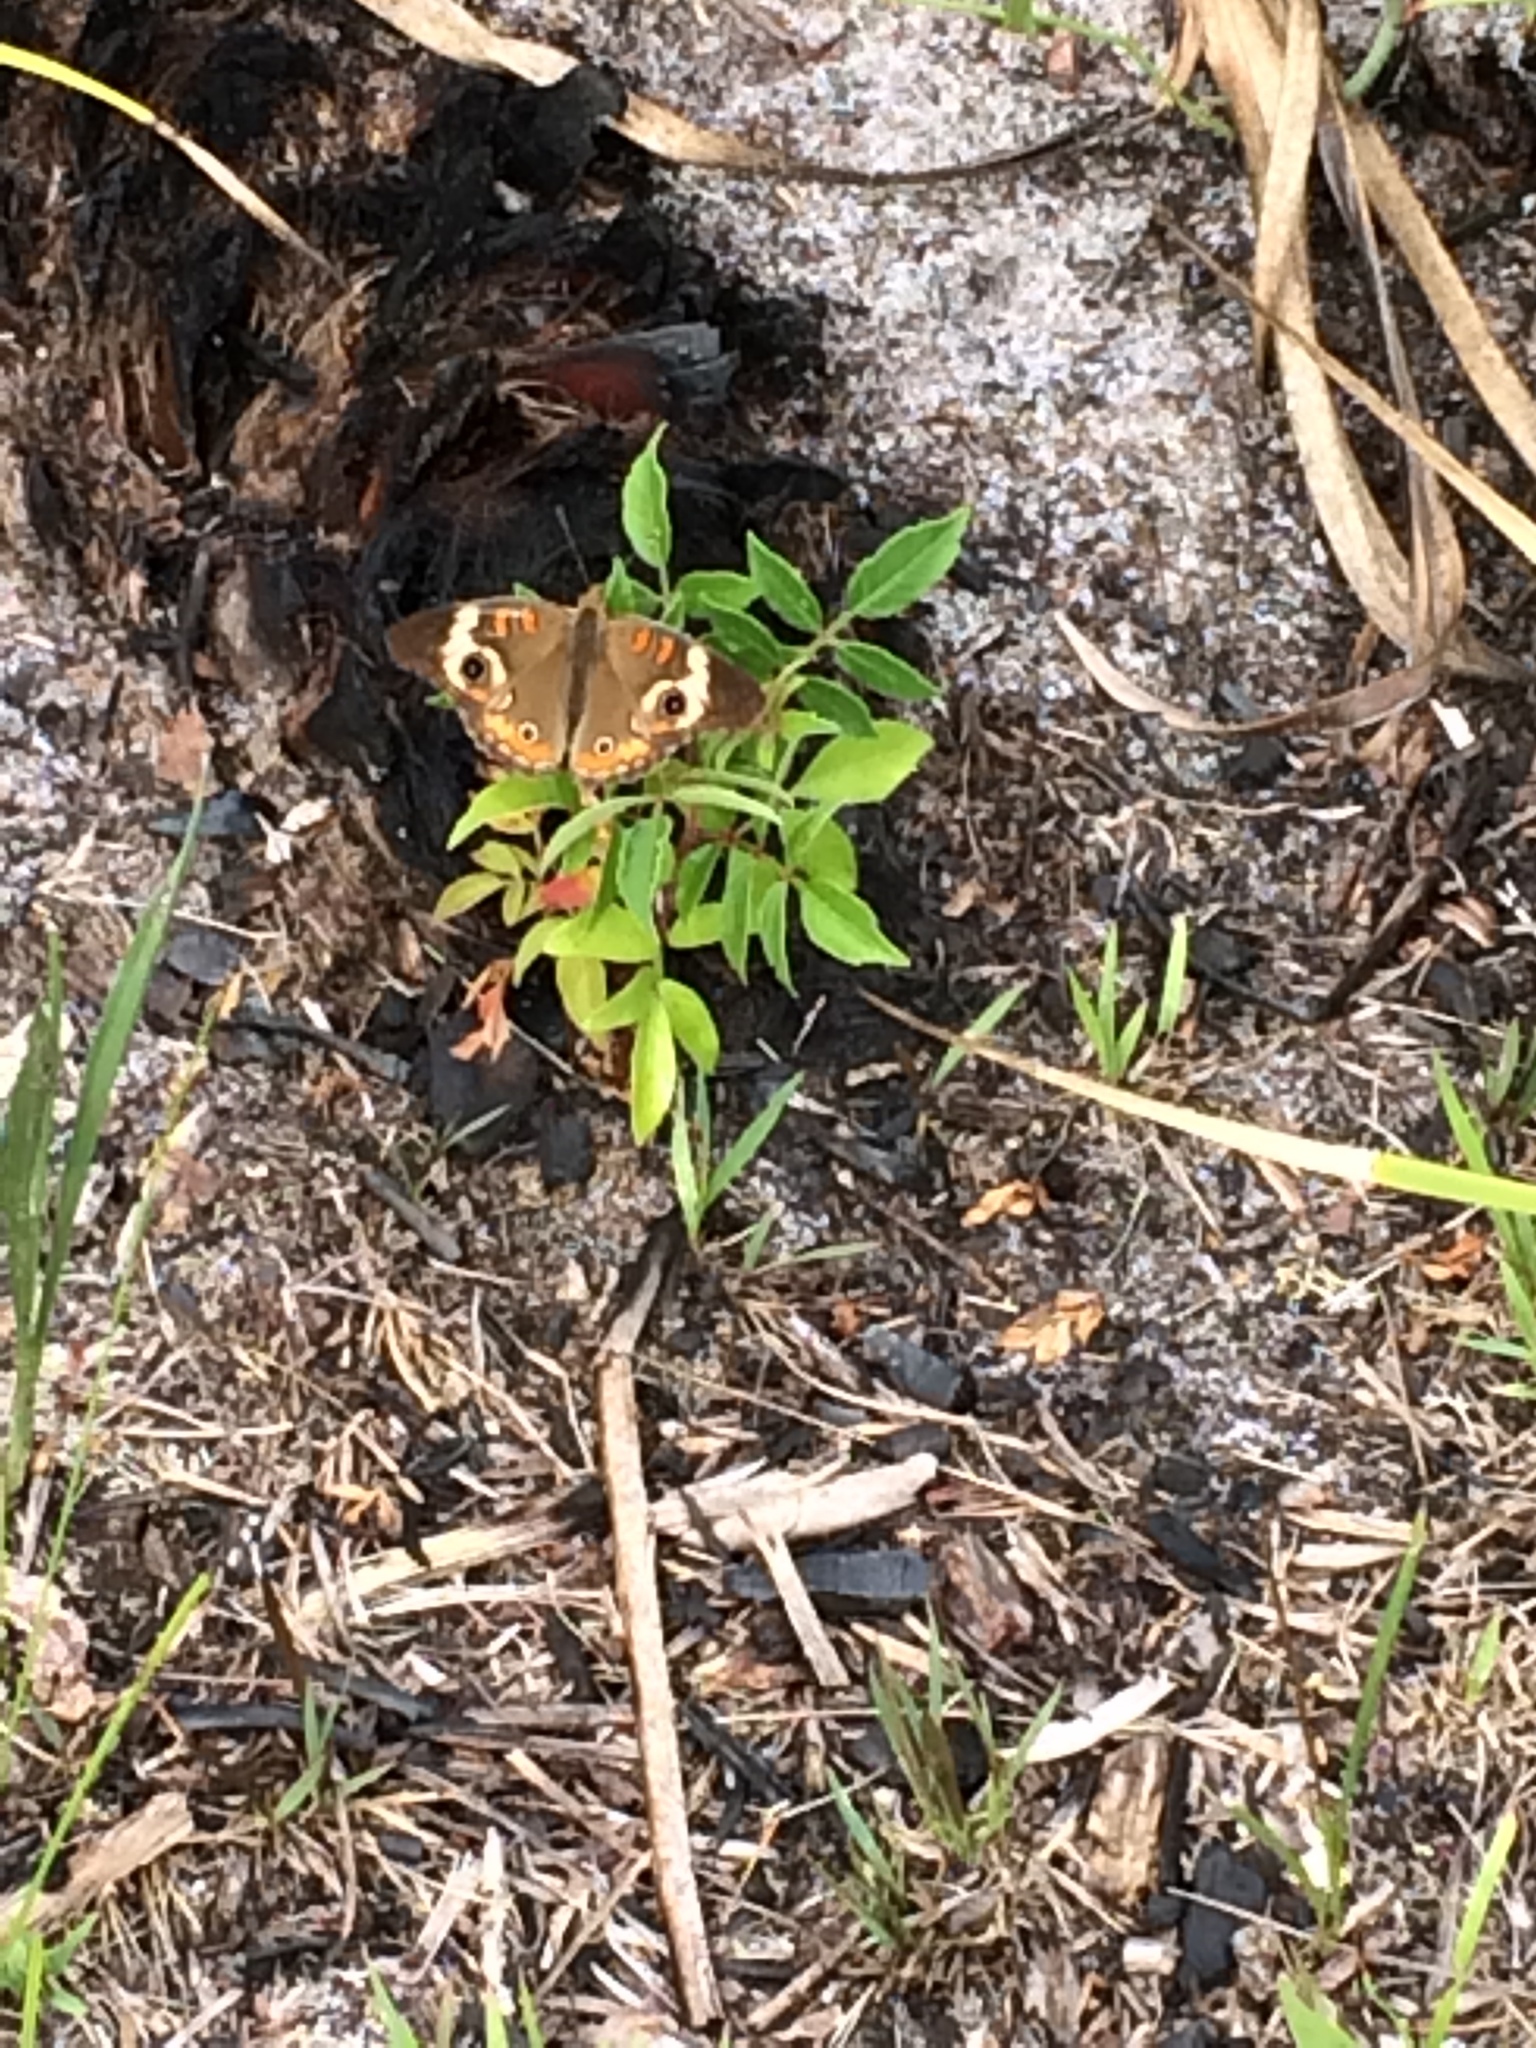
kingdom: Animalia
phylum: Arthropoda
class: Insecta
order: Lepidoptera
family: Nymphalidae
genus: Junonia
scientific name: Junonia coenia
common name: Common buckeye
